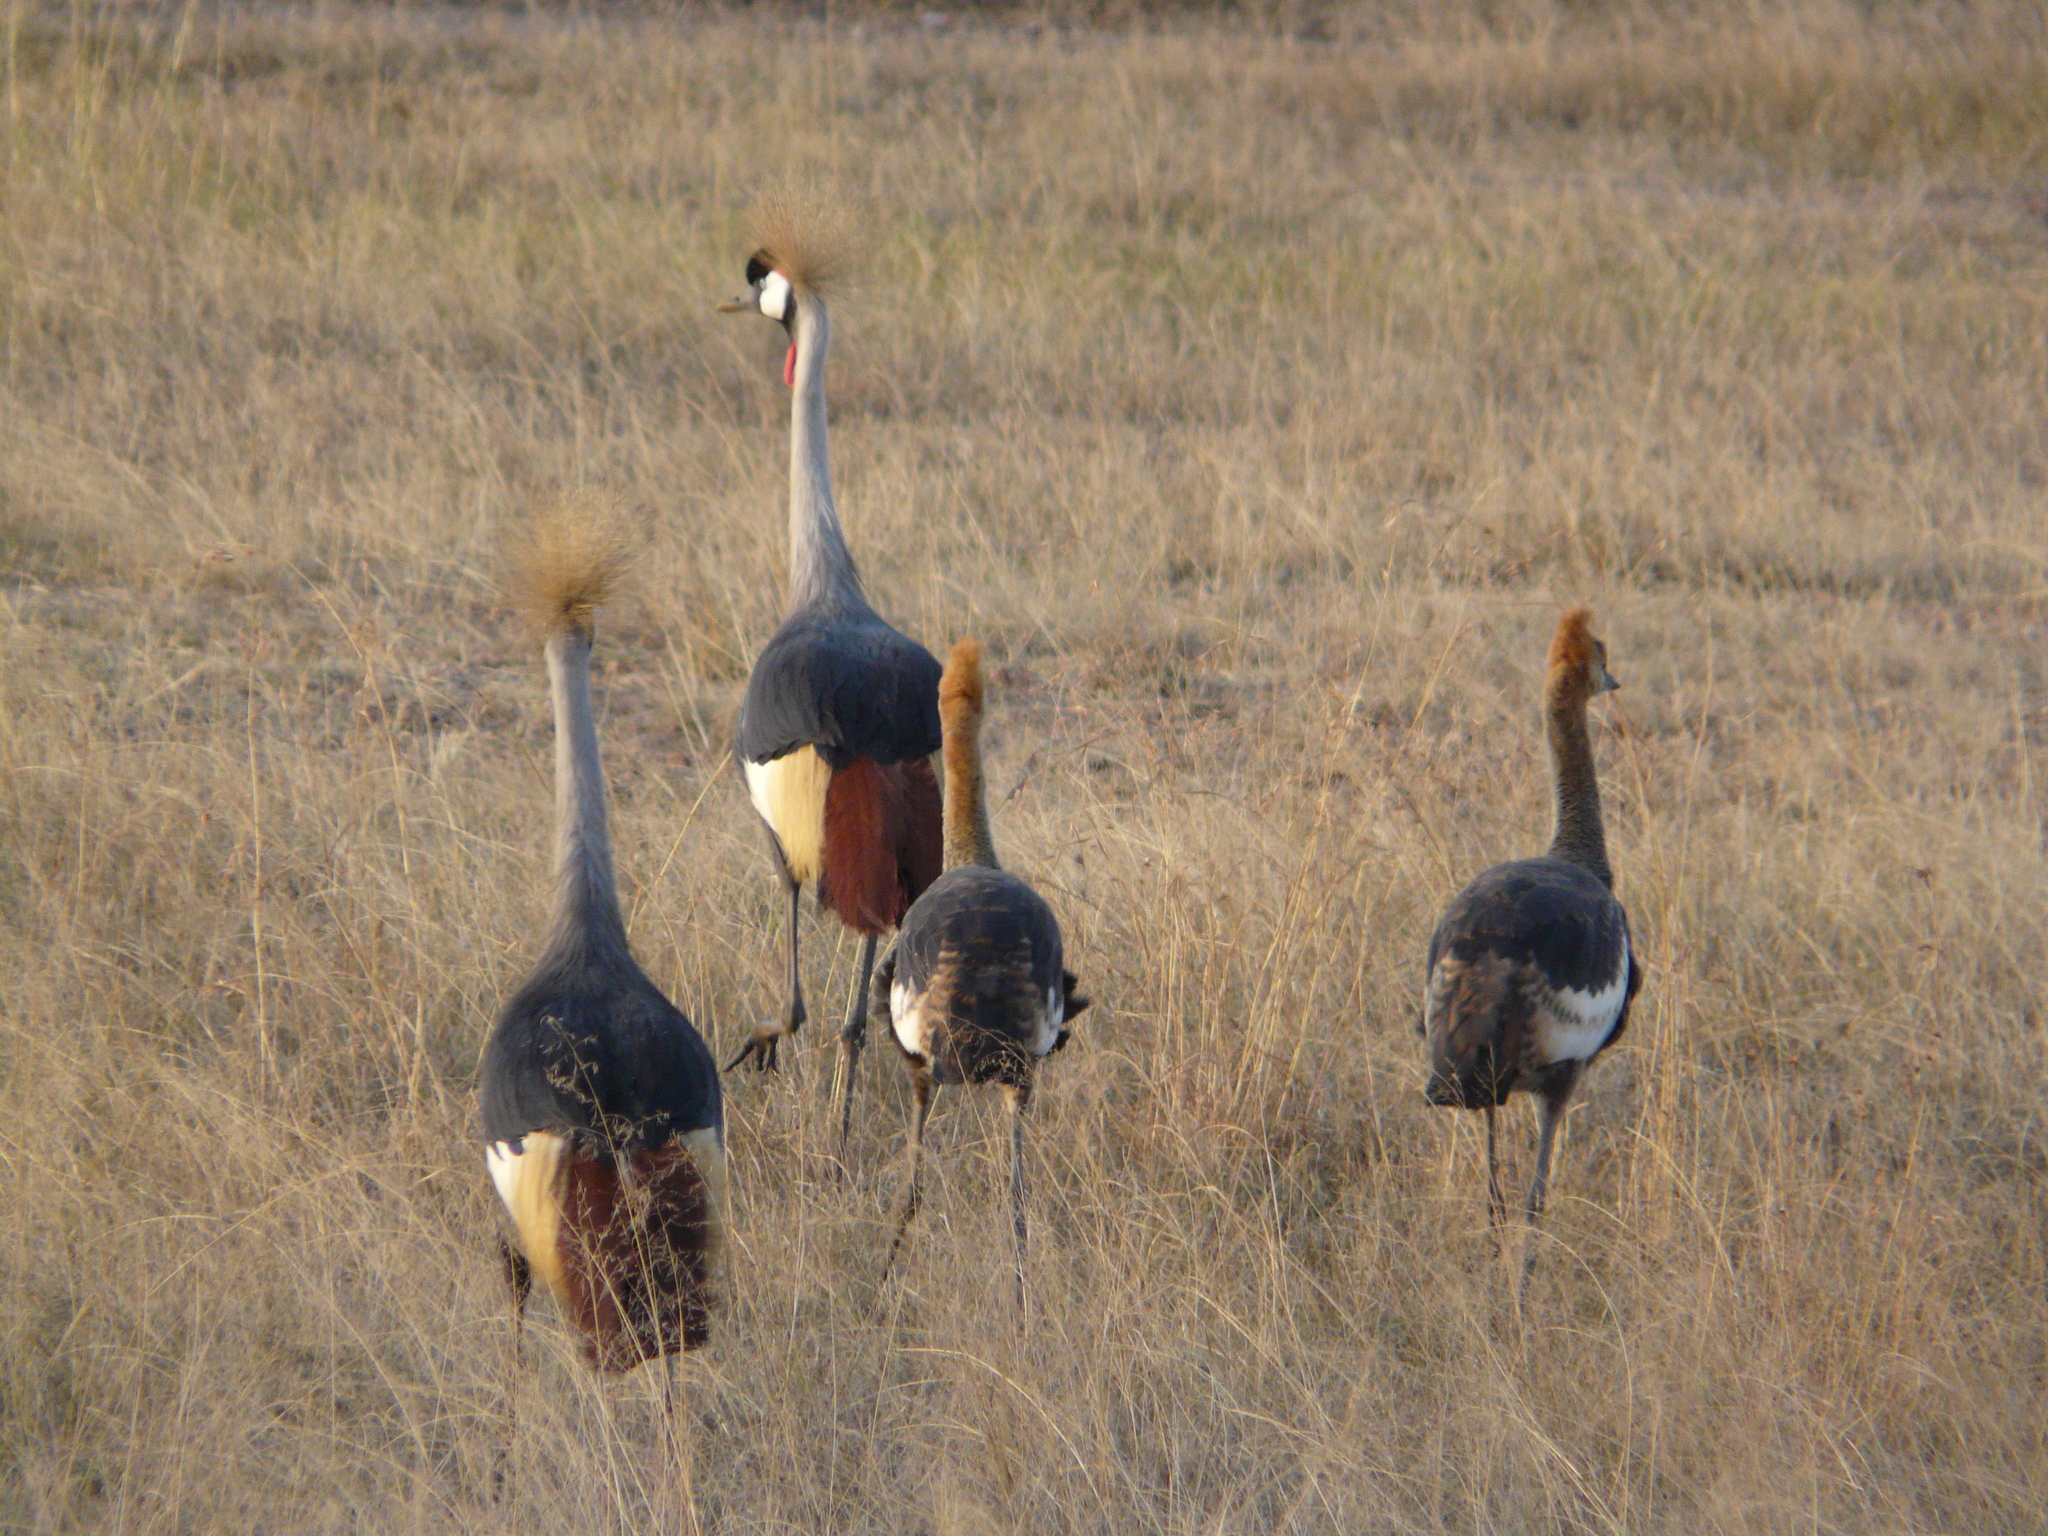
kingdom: Animalia
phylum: Chordata
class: Aves
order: Gruiformes
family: Gruidae
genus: Balearica
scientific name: Balearica regulorum
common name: Grey crowned crane
